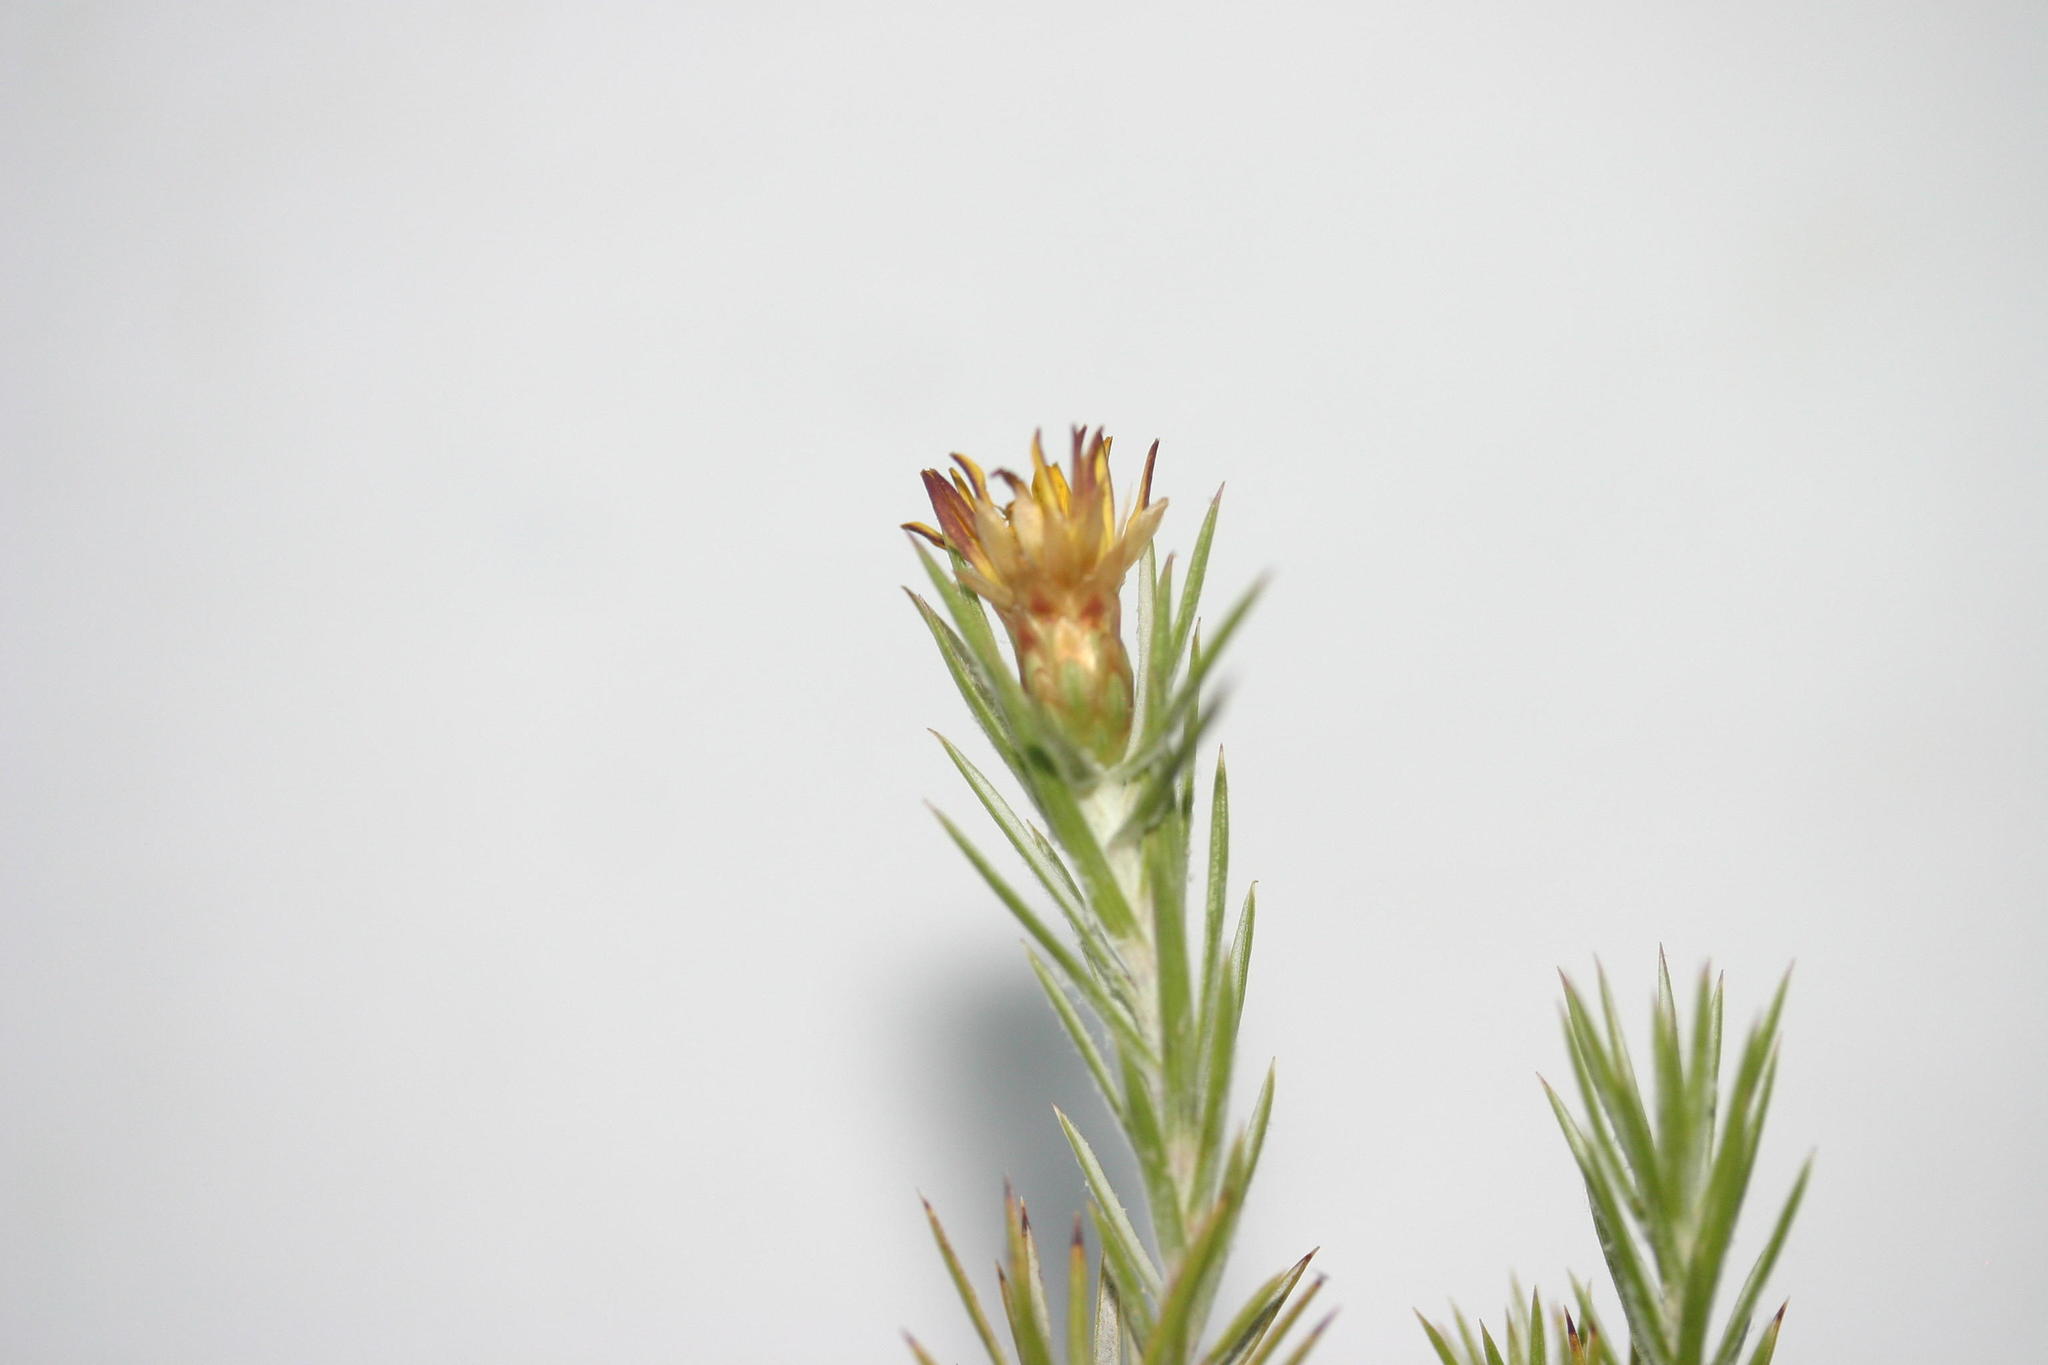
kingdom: Plantae
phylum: Tracheophyta
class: Magnoliopsida
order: Asterales
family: Asteraceae
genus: Oedera
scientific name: Oedera pungens
